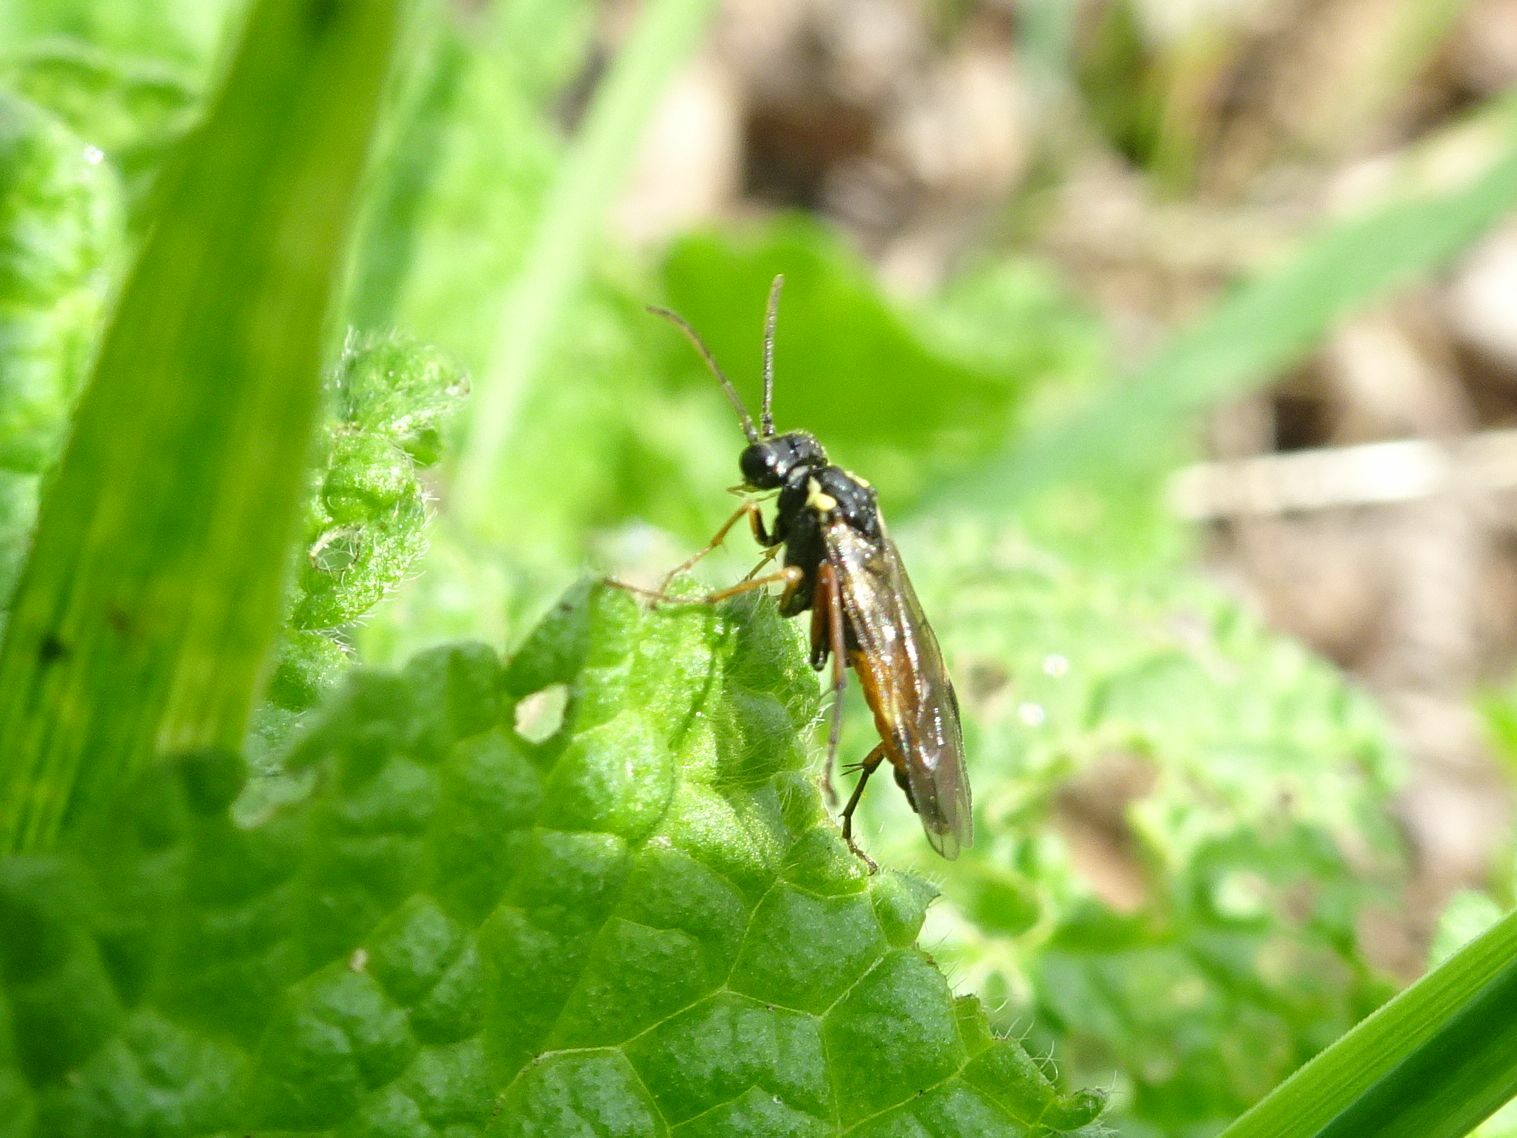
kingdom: Animalia
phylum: Arthropoda
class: Insecta
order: Hymenoptera
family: Tenthredinidae
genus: Aglaostigma
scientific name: Aglaostigma aucupariae
